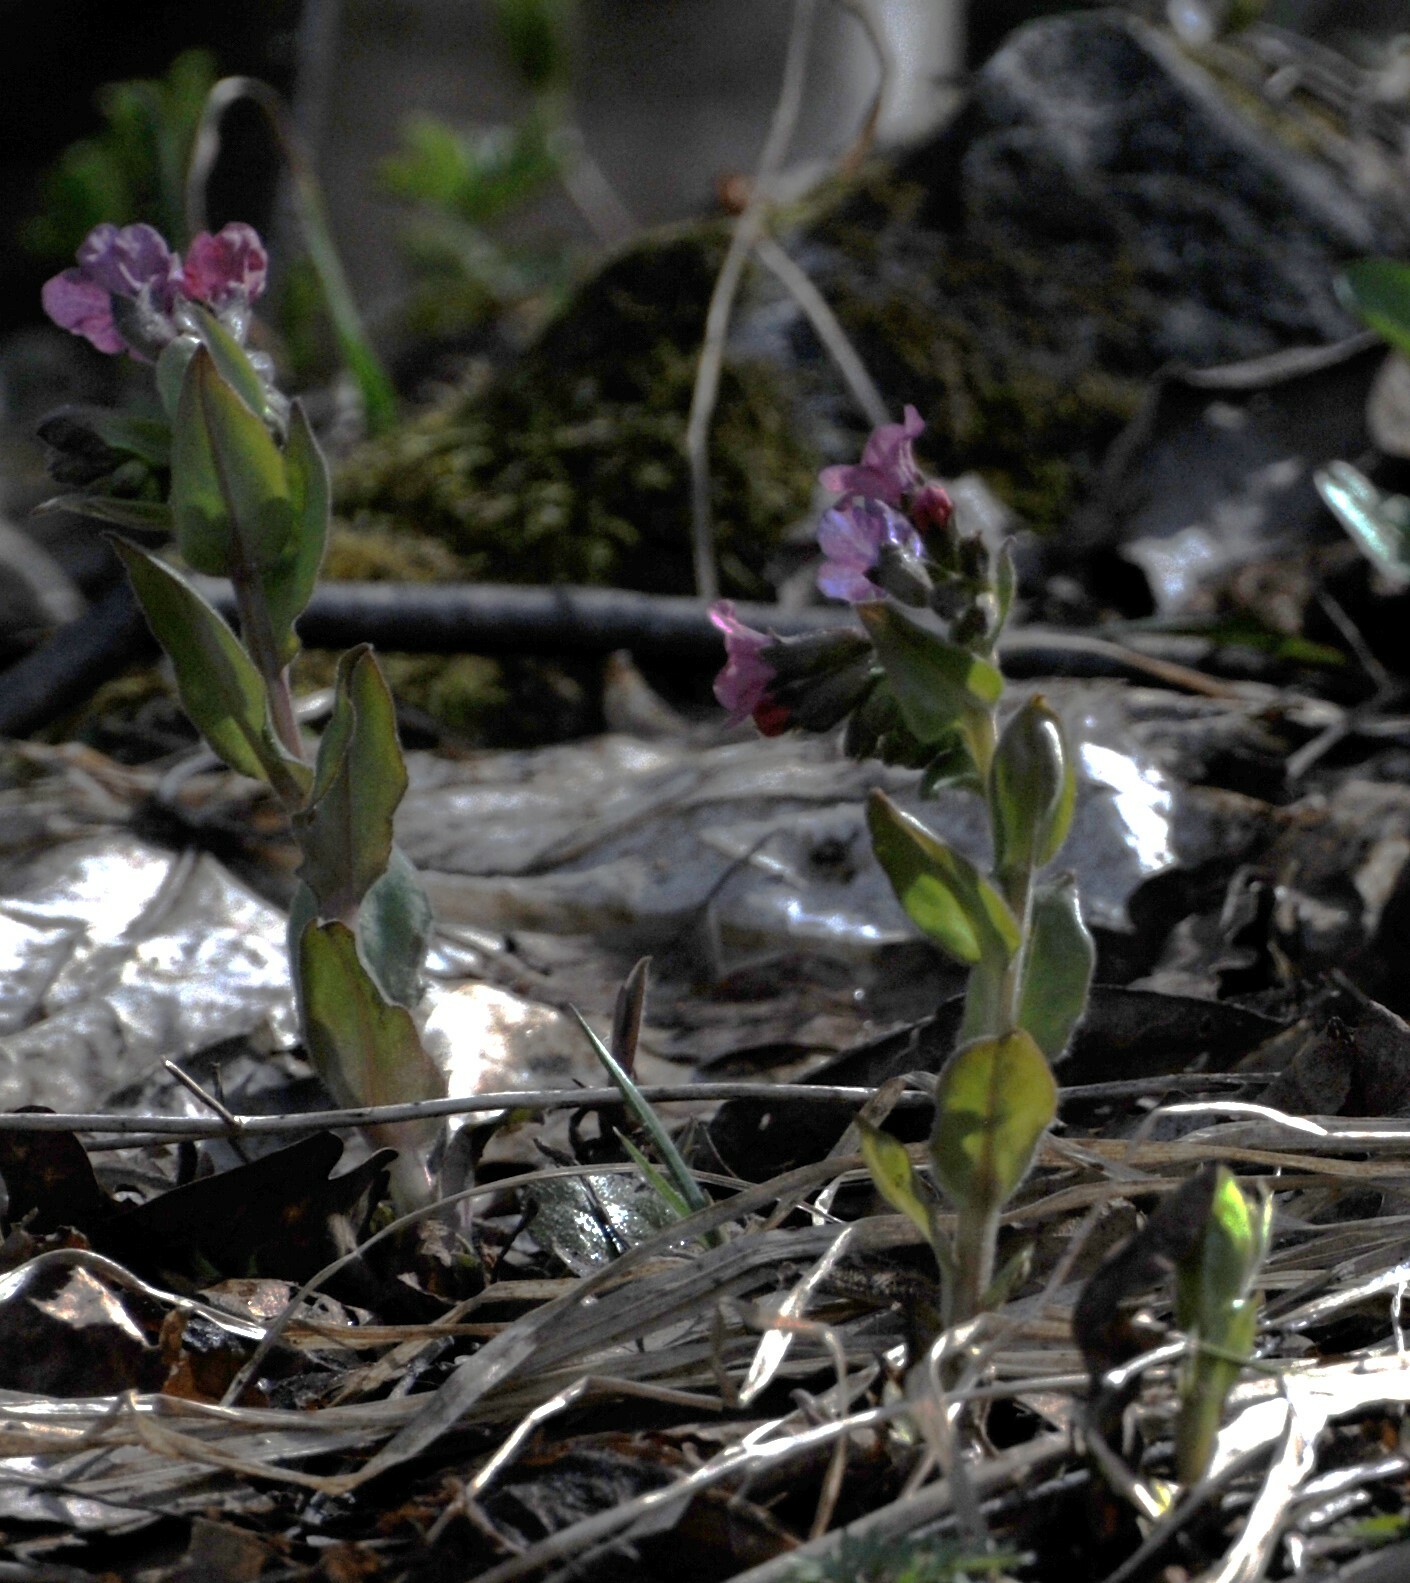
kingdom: Plantae
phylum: Tracheophyta
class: Magnoliopsida
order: Boraginales
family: Boraginaceae
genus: Pulmonaria
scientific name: Pulmonaria obscura
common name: Suffolk lungwort
